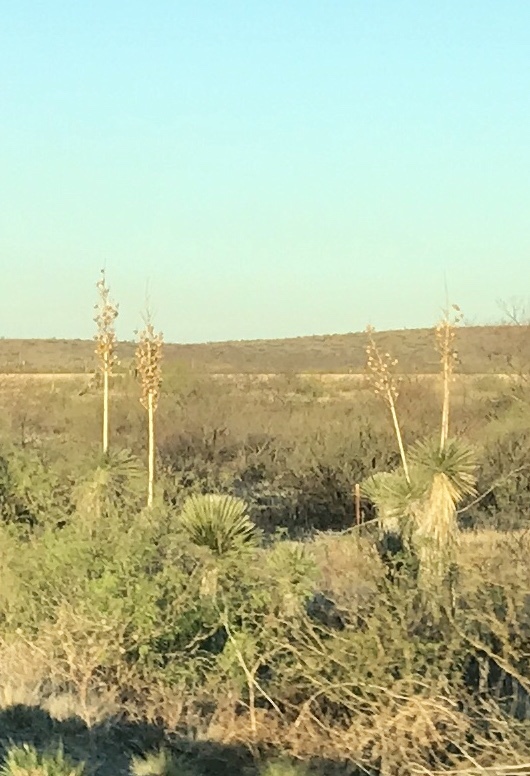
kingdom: Plantae
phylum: Tracheophyta
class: Liliopsida
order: Asparagales
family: Asparagaceae
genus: Yucca
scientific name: Yucca elata
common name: Palmella
